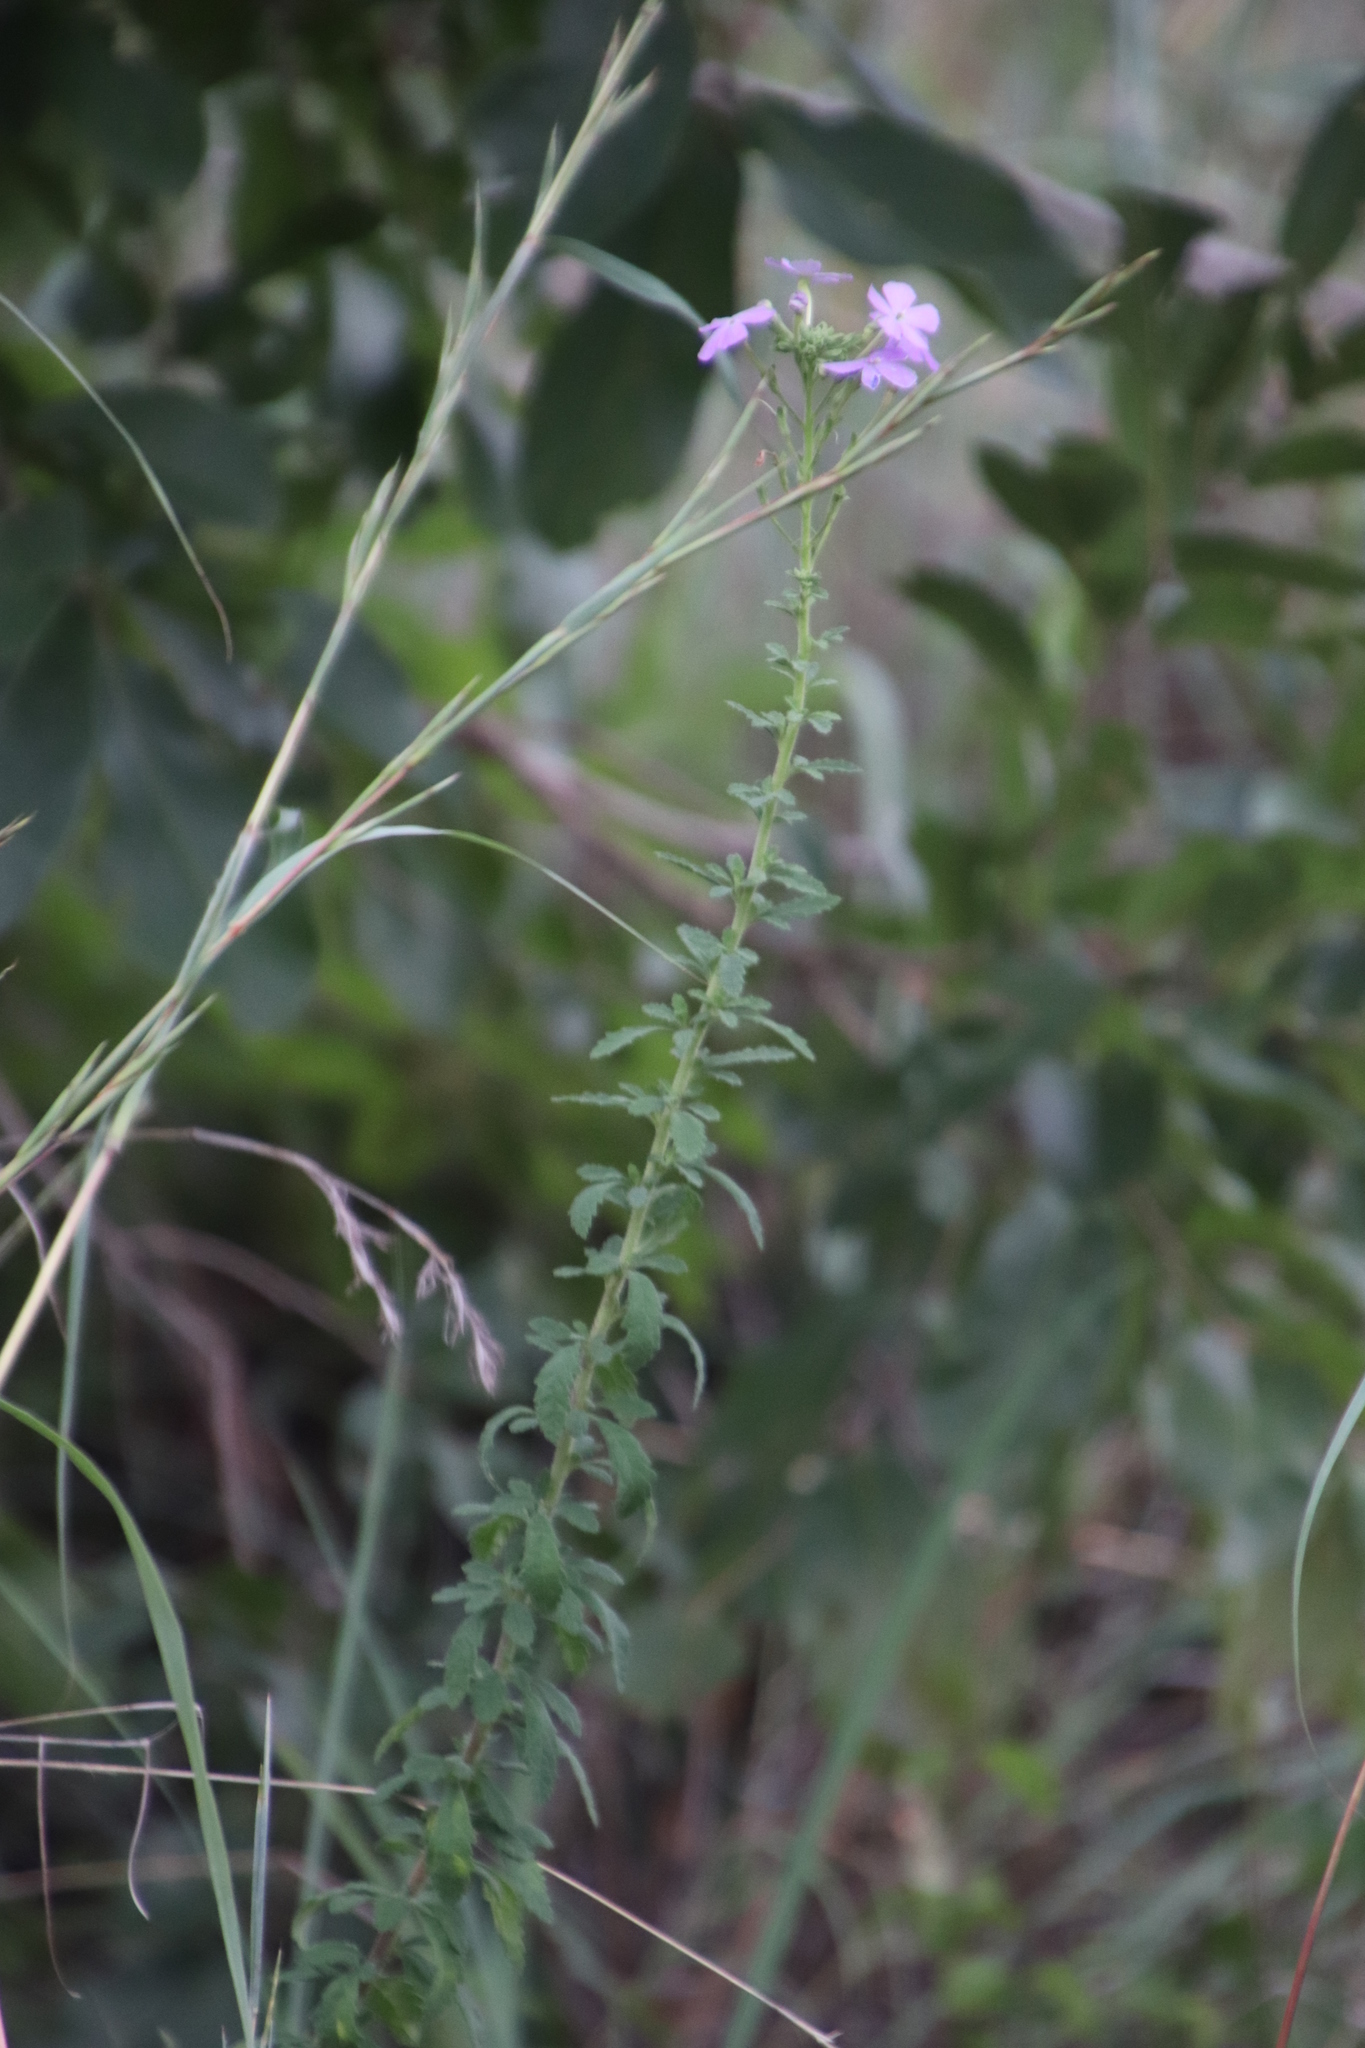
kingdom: Plantae
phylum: Tracheophyta
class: Magnoliopsida
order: Lamiales
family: Scrophulariaceae
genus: Jamesbrittenia
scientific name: Jamesbrittenia grandiflora
